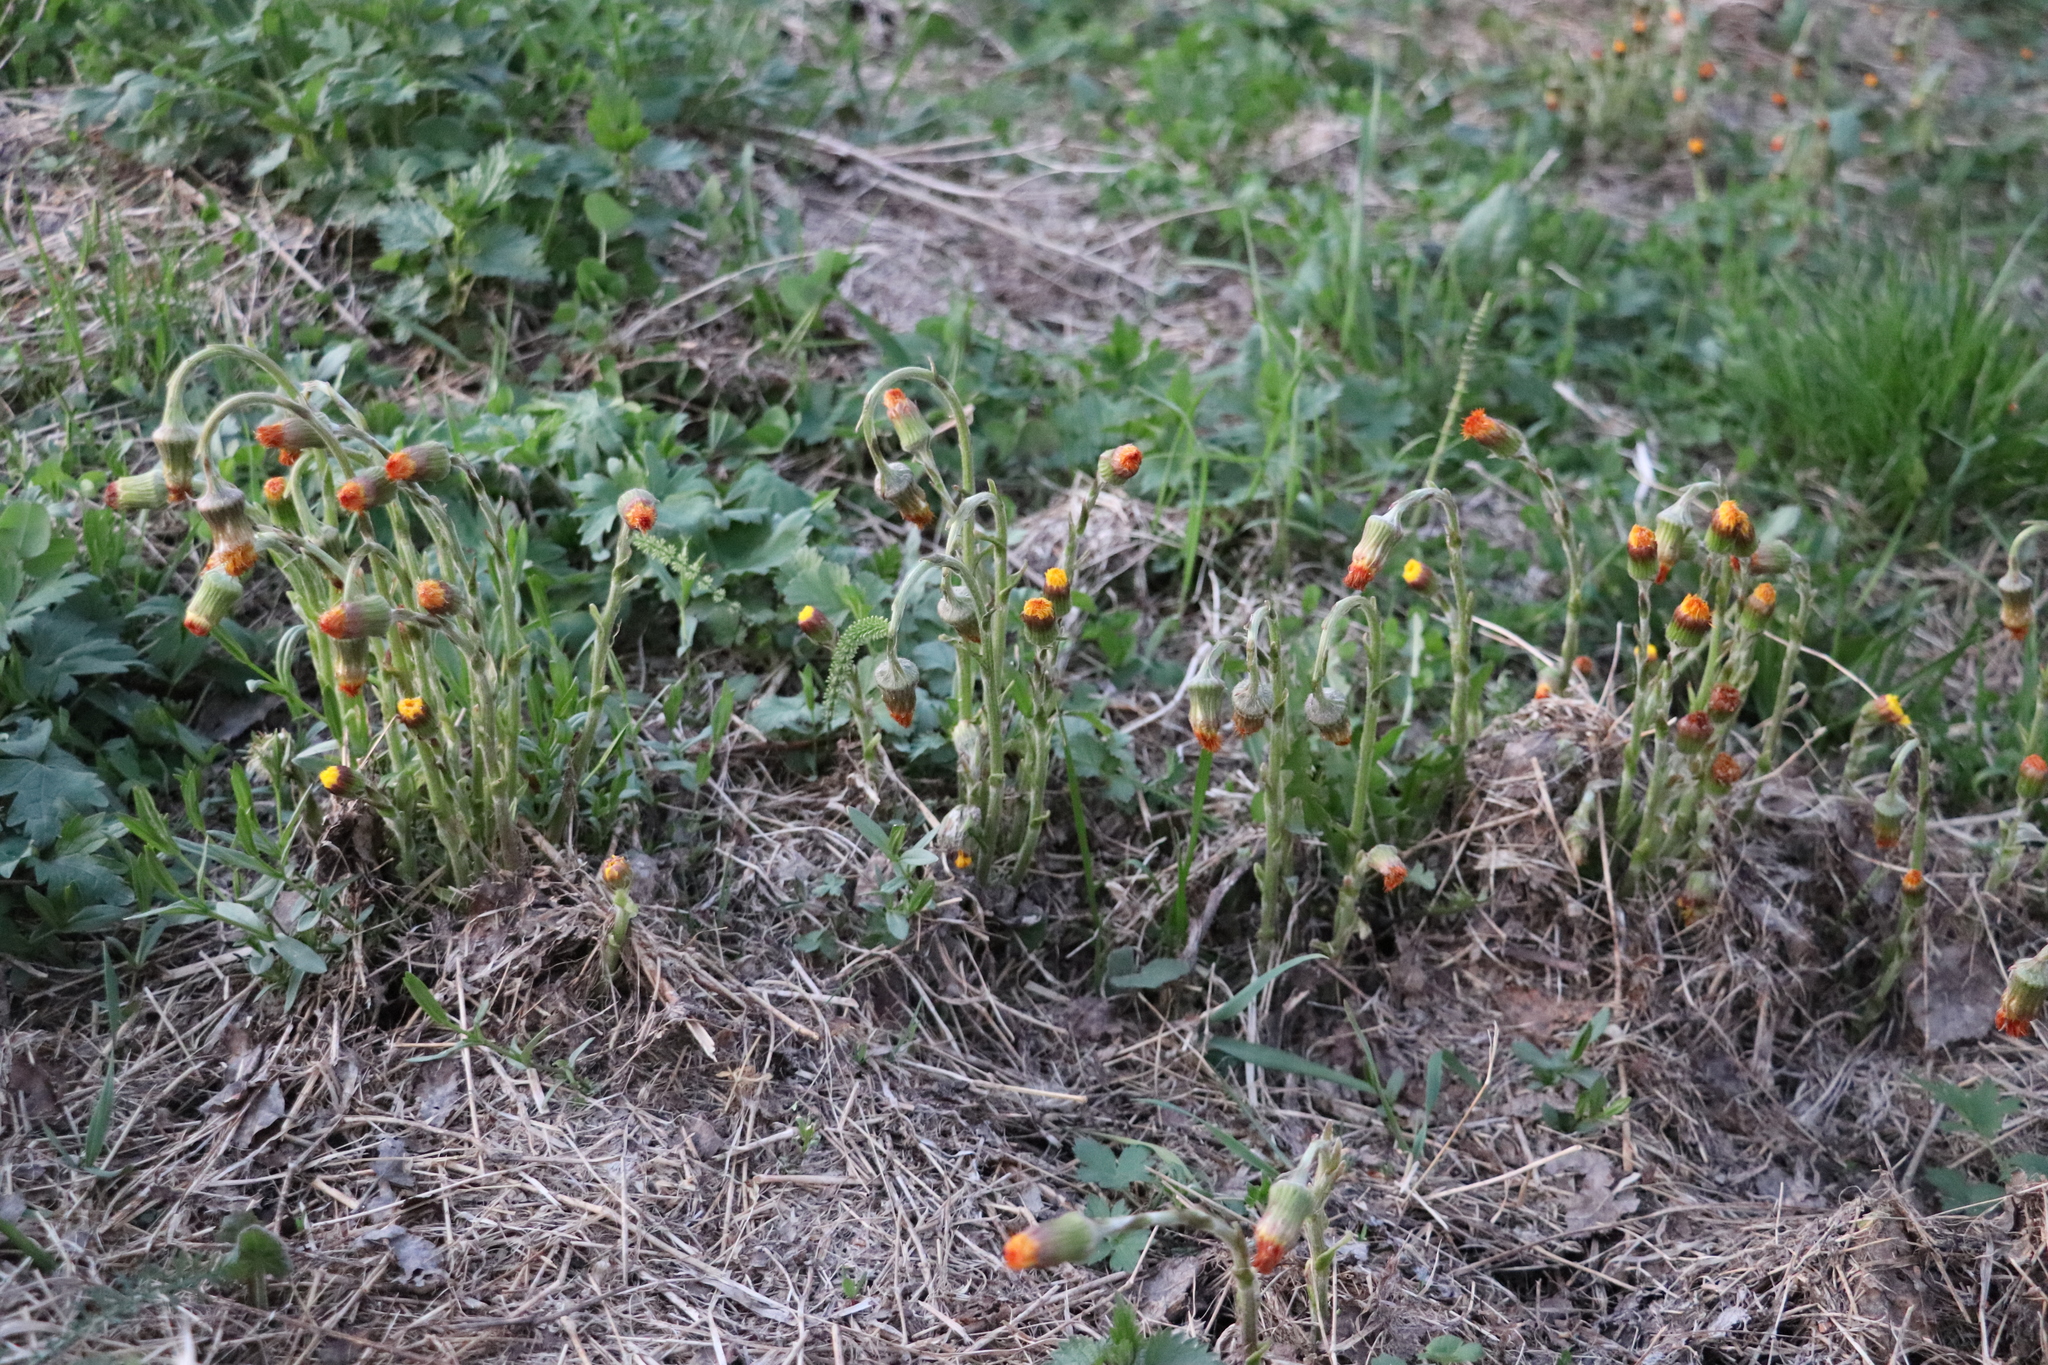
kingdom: Plantae
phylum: Tracheophyta
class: Magnoliopsida
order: Asterales
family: Asteraceae
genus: Tussilago
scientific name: Tussilago farfara
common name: Coltsfoot
